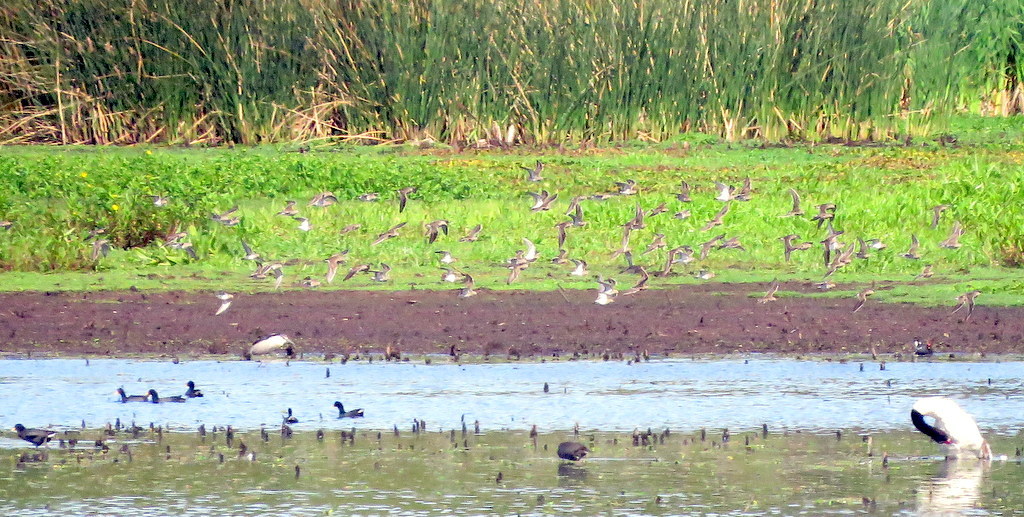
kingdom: Animalia
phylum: Chordata
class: Aves
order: Charadriiformes
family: Scolopacidae
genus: Calidris
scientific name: Calidris melanotos
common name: Pectoral sandpiper
